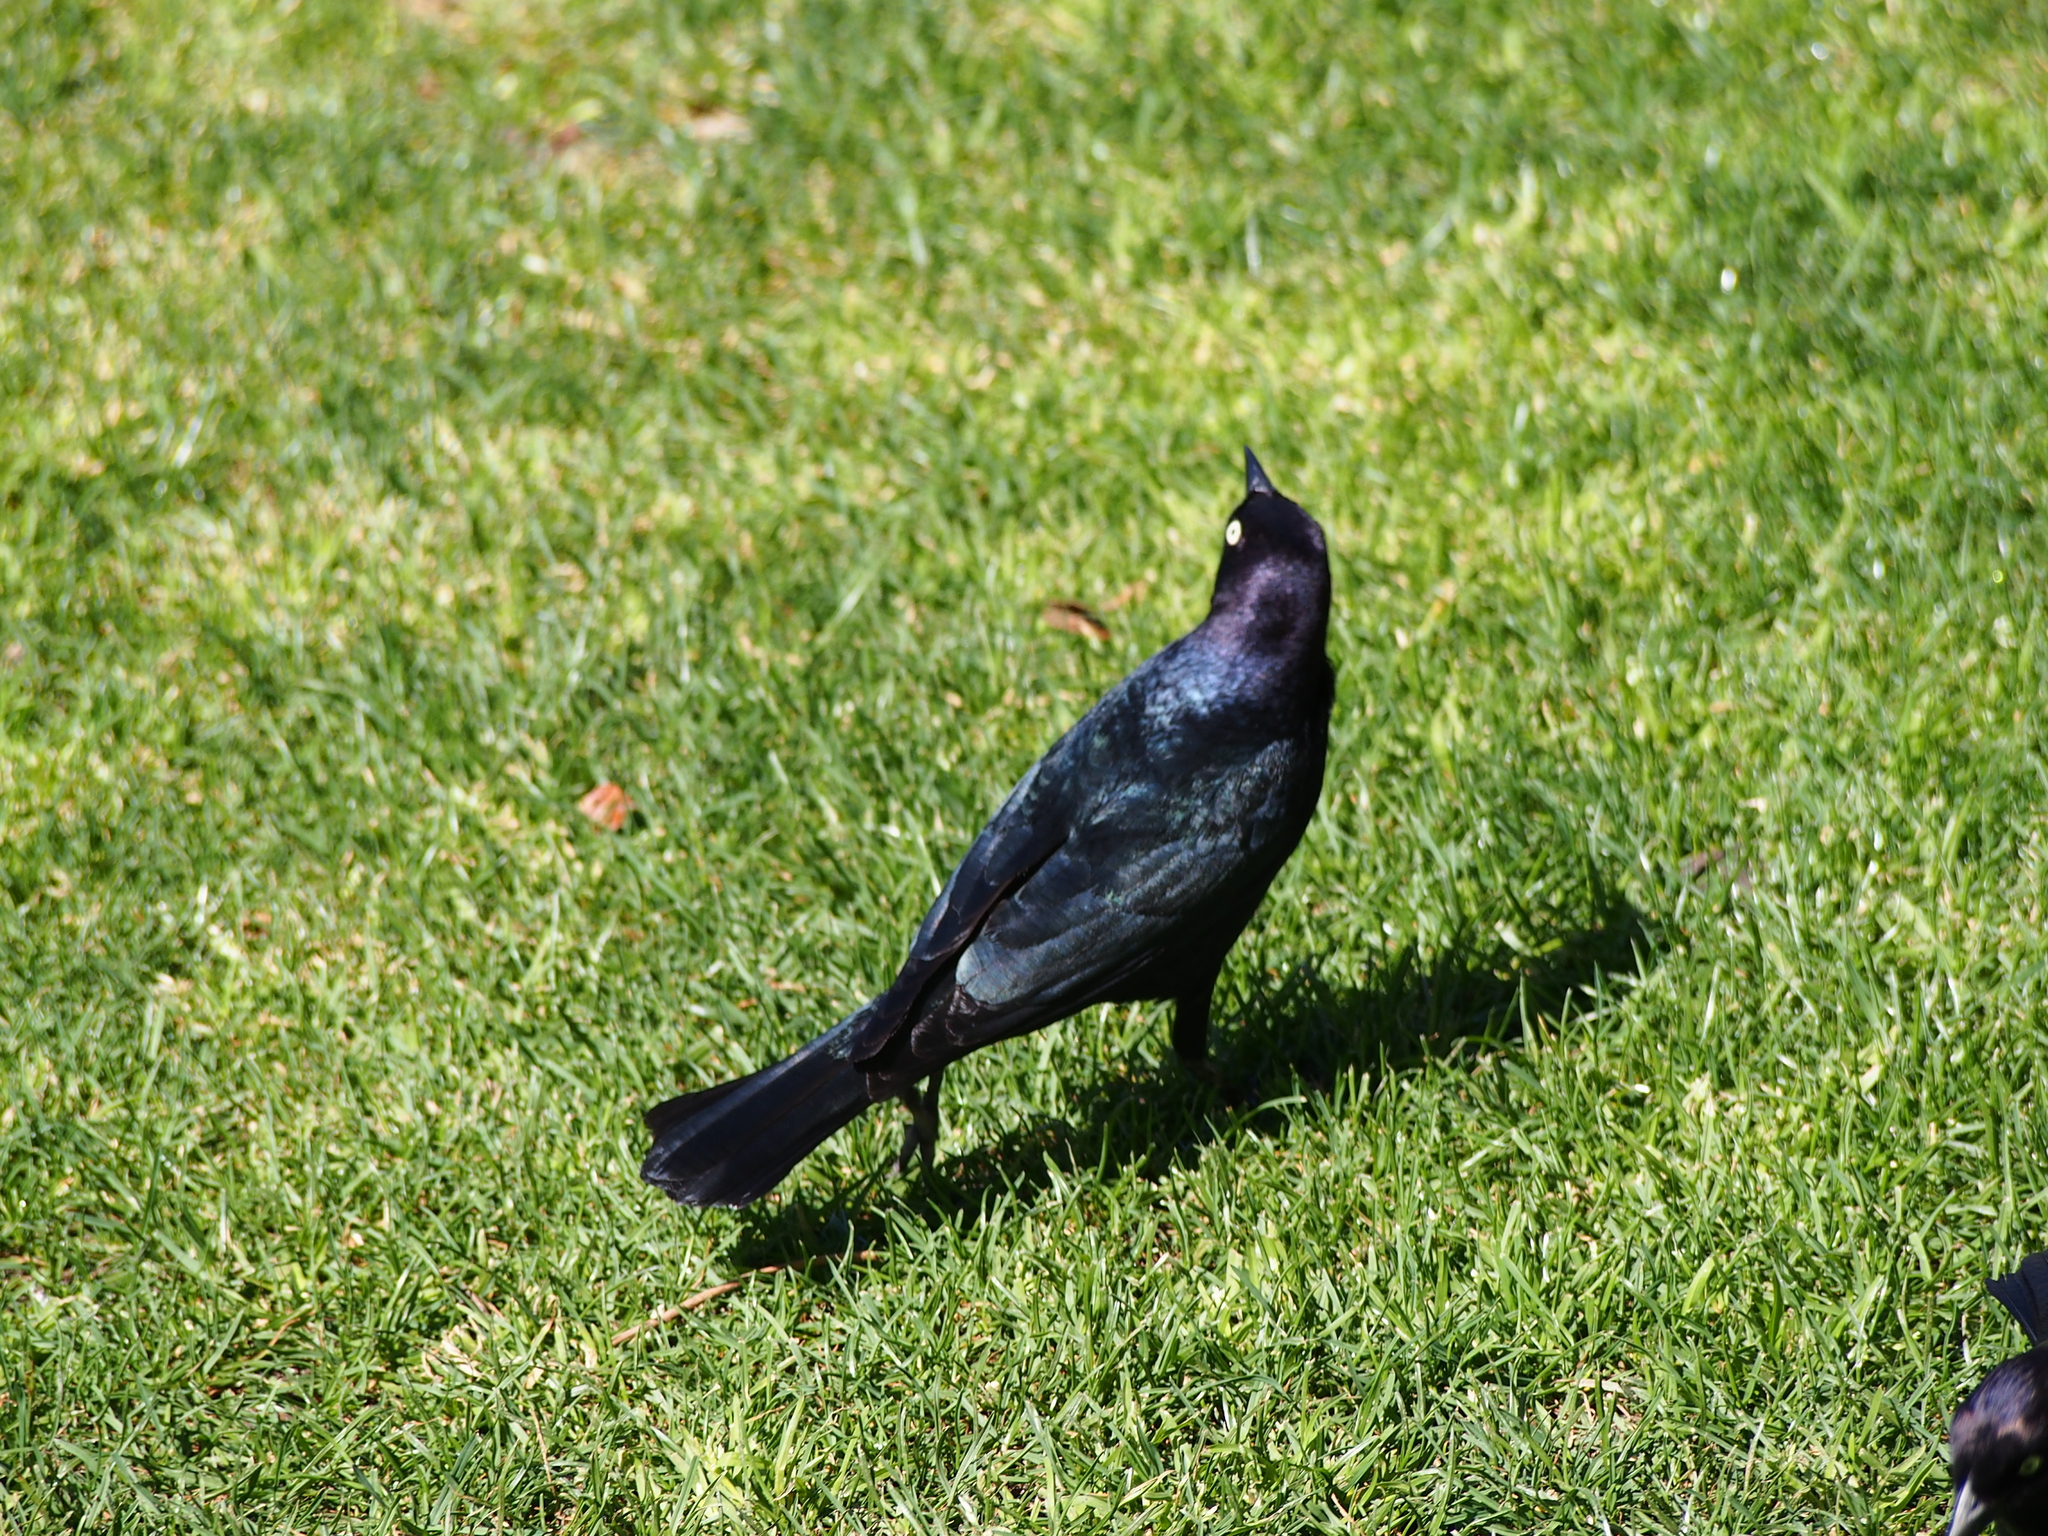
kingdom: Animalia
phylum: Chordata
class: Aves
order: Passeriformes
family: Icteridae
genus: Euphagus
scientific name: Euphagus cyanocephalus
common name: Brewer's blackbird
